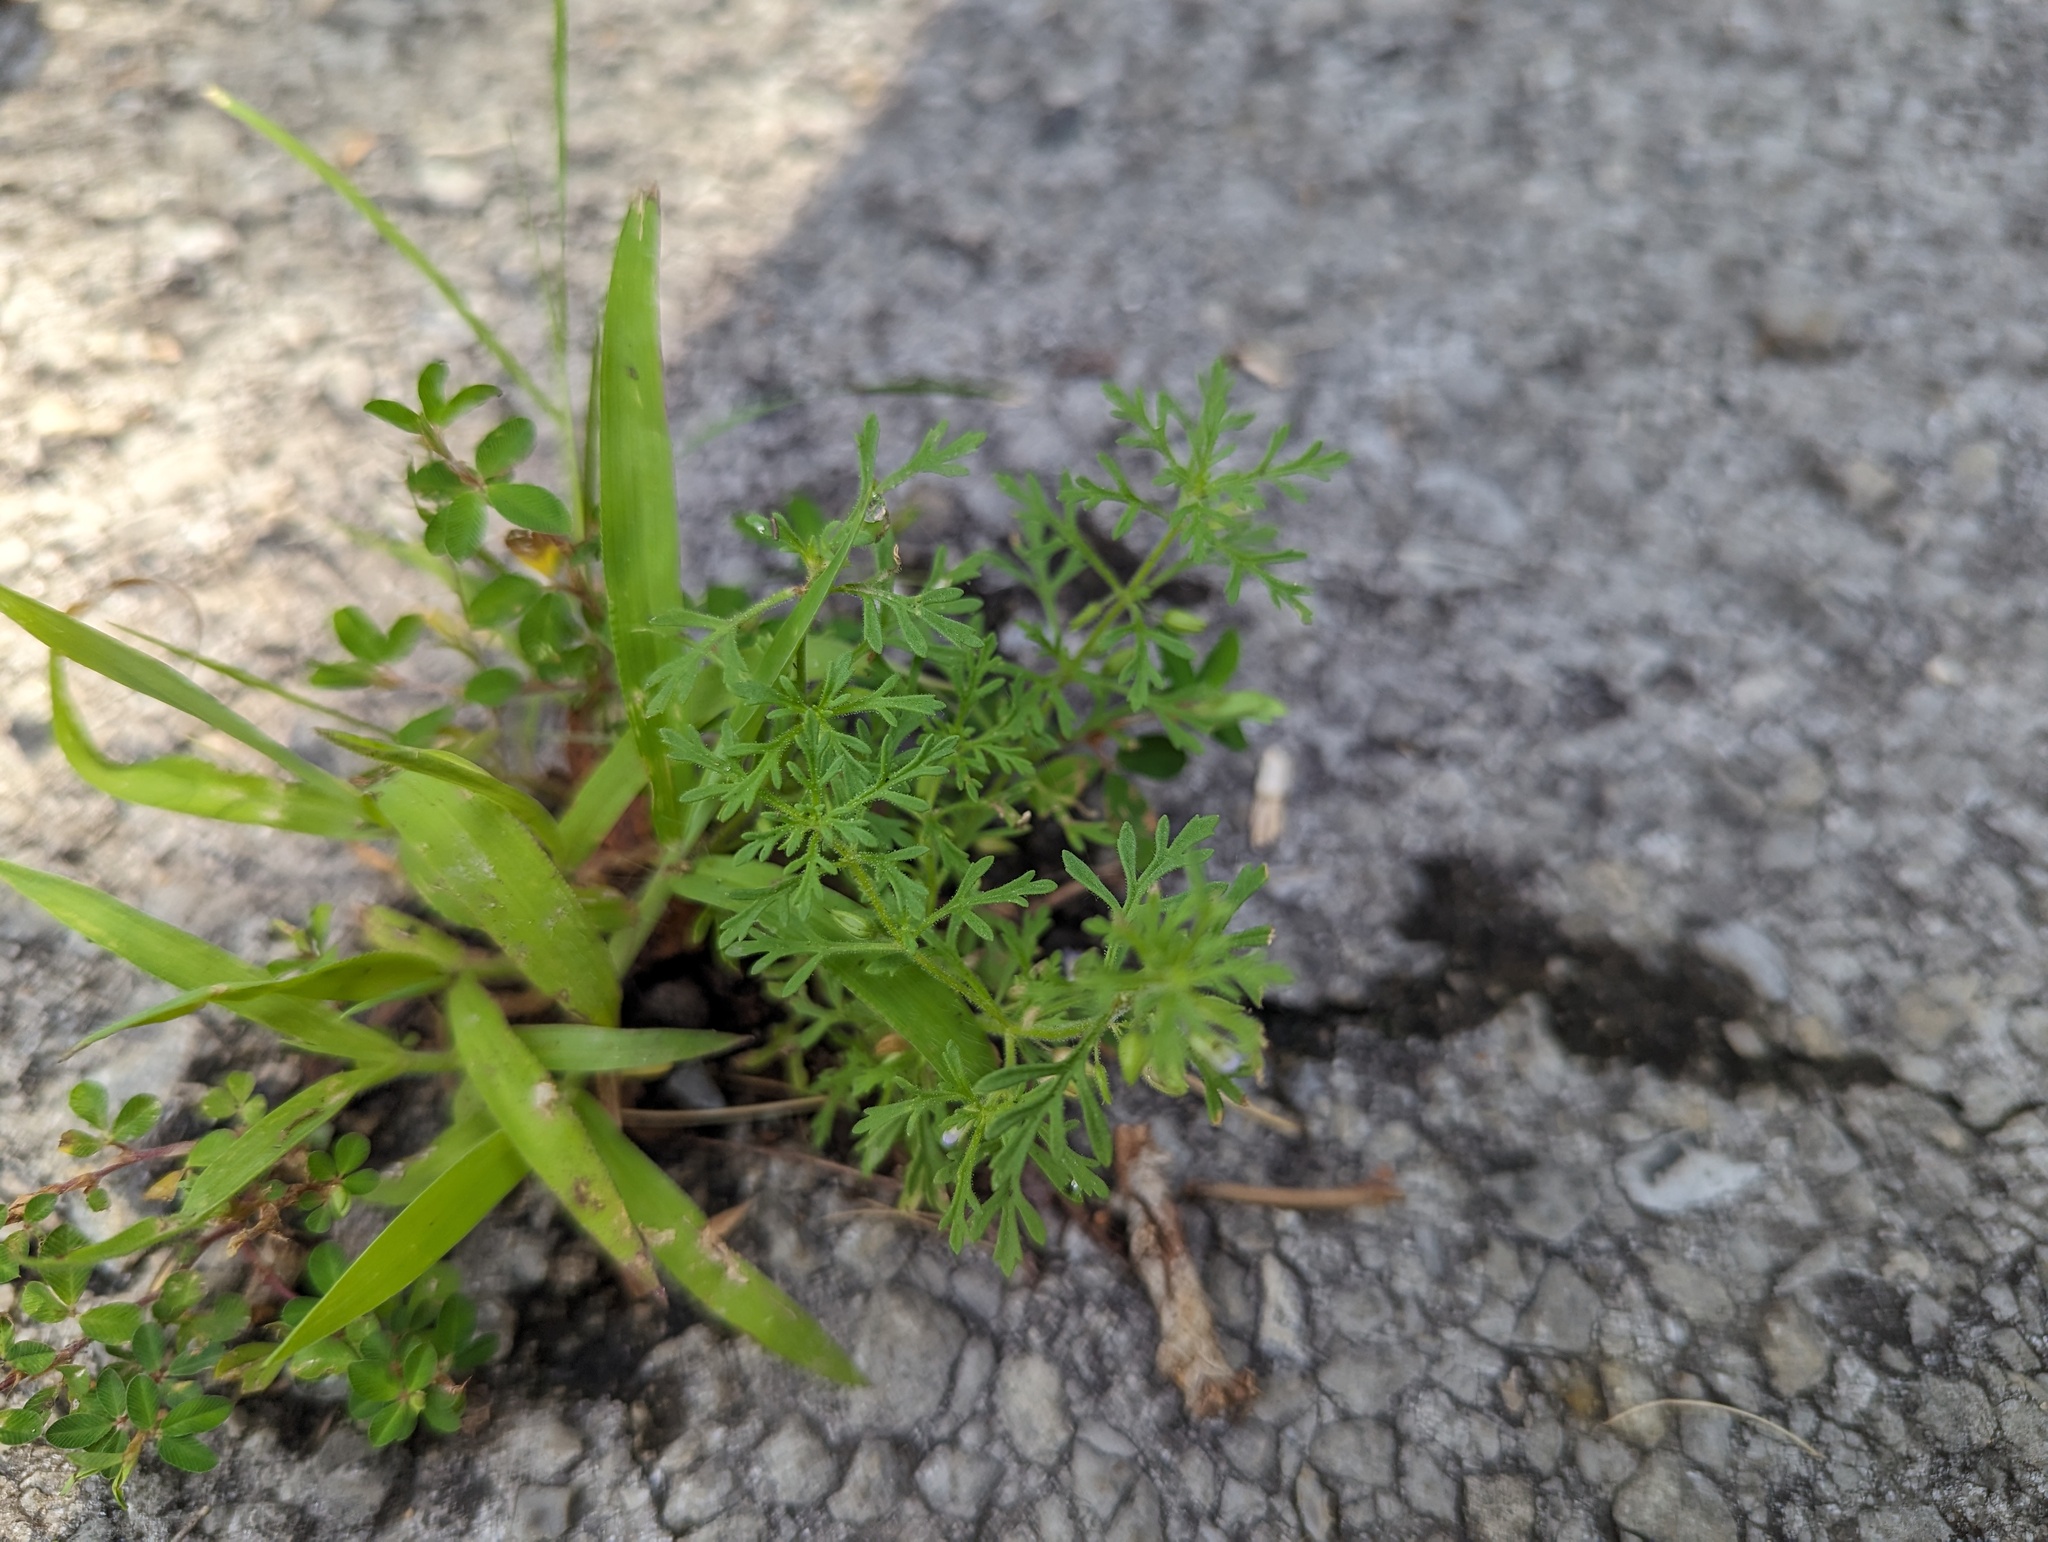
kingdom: Plantae
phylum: Tracheophyta
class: Magnoliopsida
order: Lamiales
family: Plantaginaceae
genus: Leucospora
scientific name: Leucospora multifida
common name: Narrow-leaf paleseed
